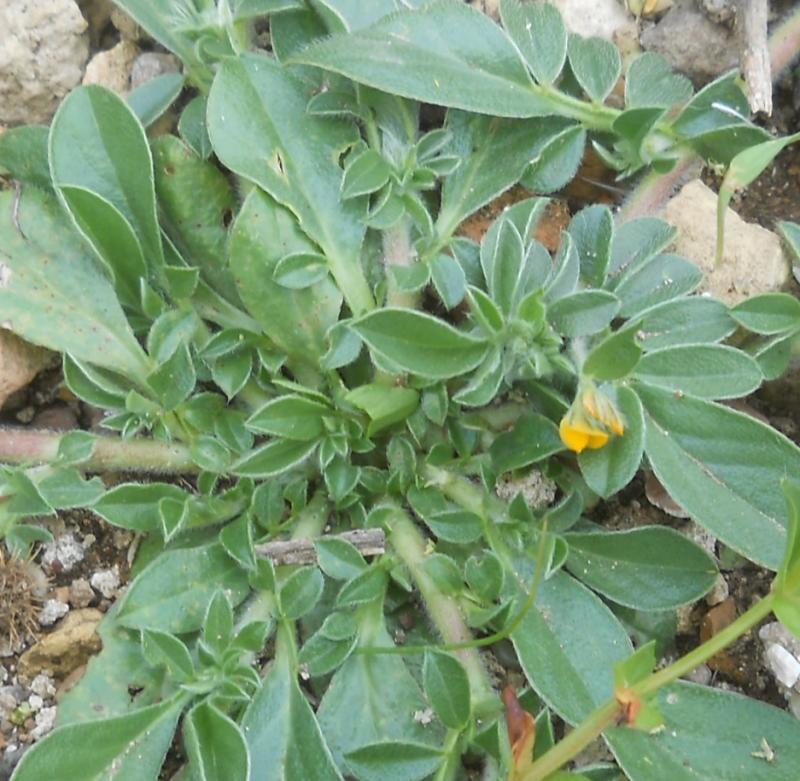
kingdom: Plantae
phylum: Tracheophyta
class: Magnoliopsida
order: Fabales
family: Fabaceae
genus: Anthyllis
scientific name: Anthyllis circinnata
